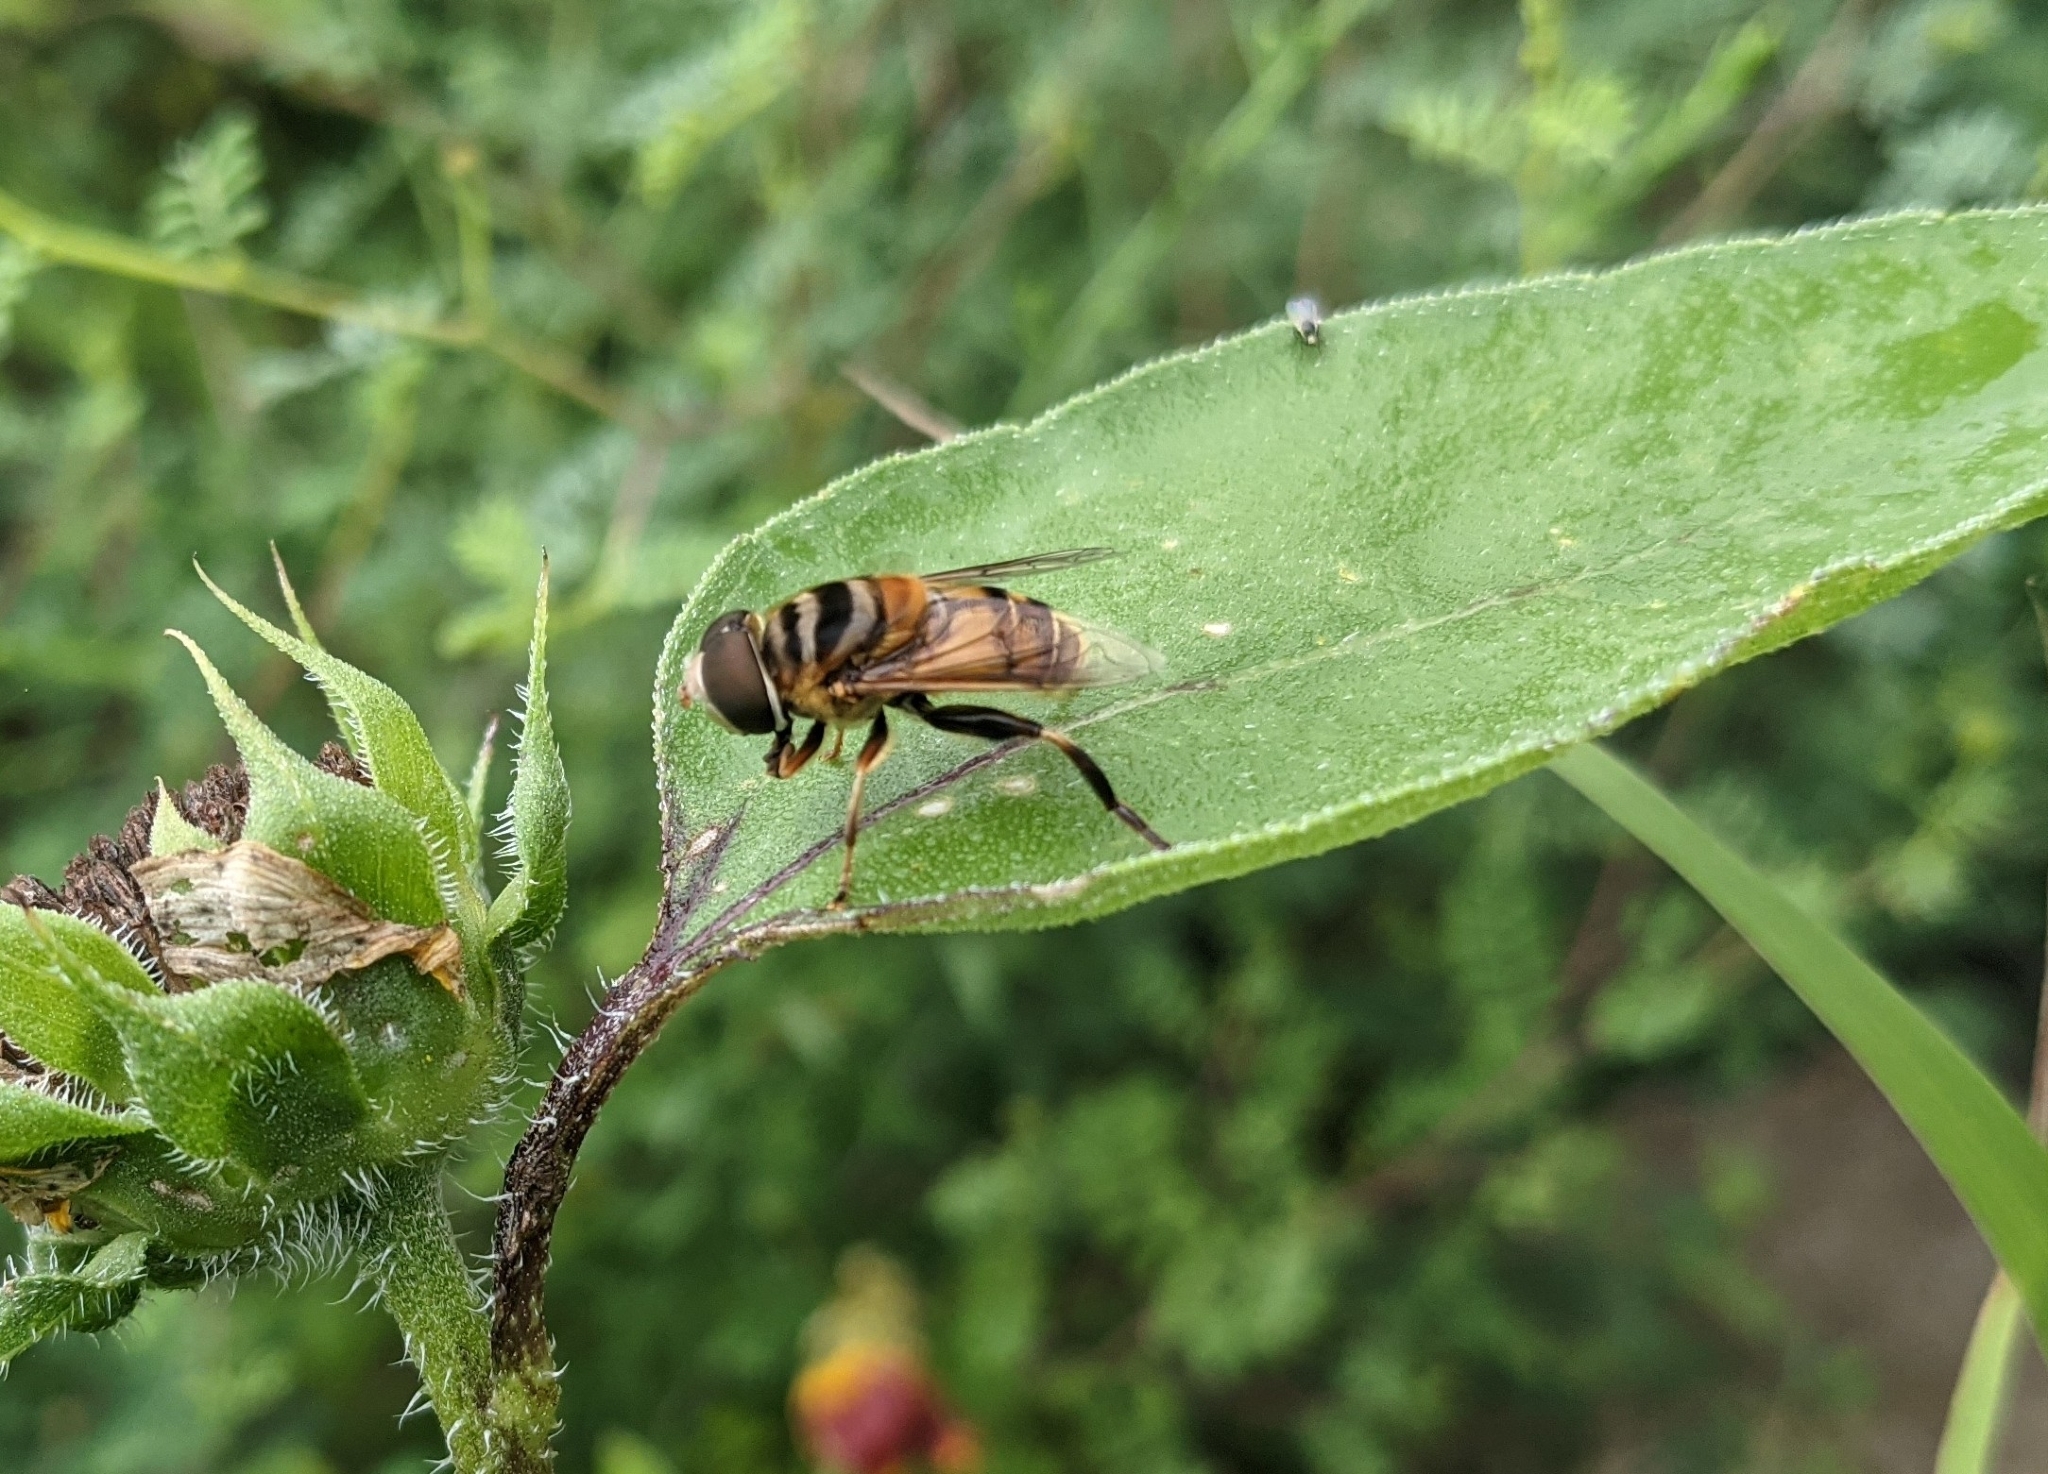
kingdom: Animalia
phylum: Arthropoda
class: Insecta
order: Diptera
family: Syrphidae
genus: Palpada
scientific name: Palpada vinetorum
